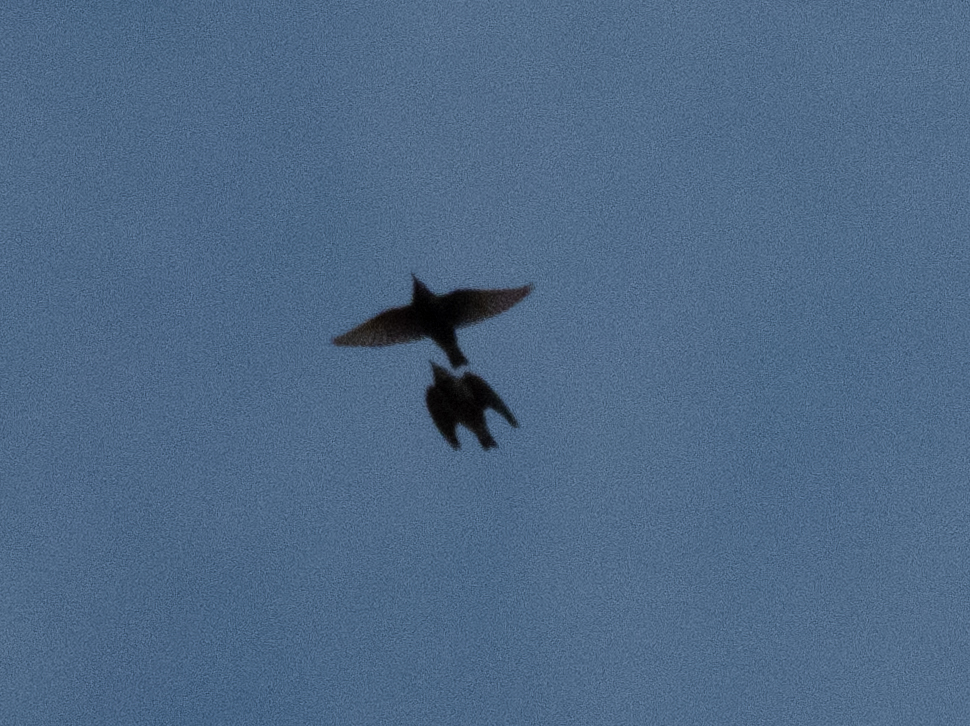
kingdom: Animalia
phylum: Chordata
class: Aves
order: Passeriformes
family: Sturnidae
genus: Sturnus
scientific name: Sturnus vulgaris
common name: Common starling
